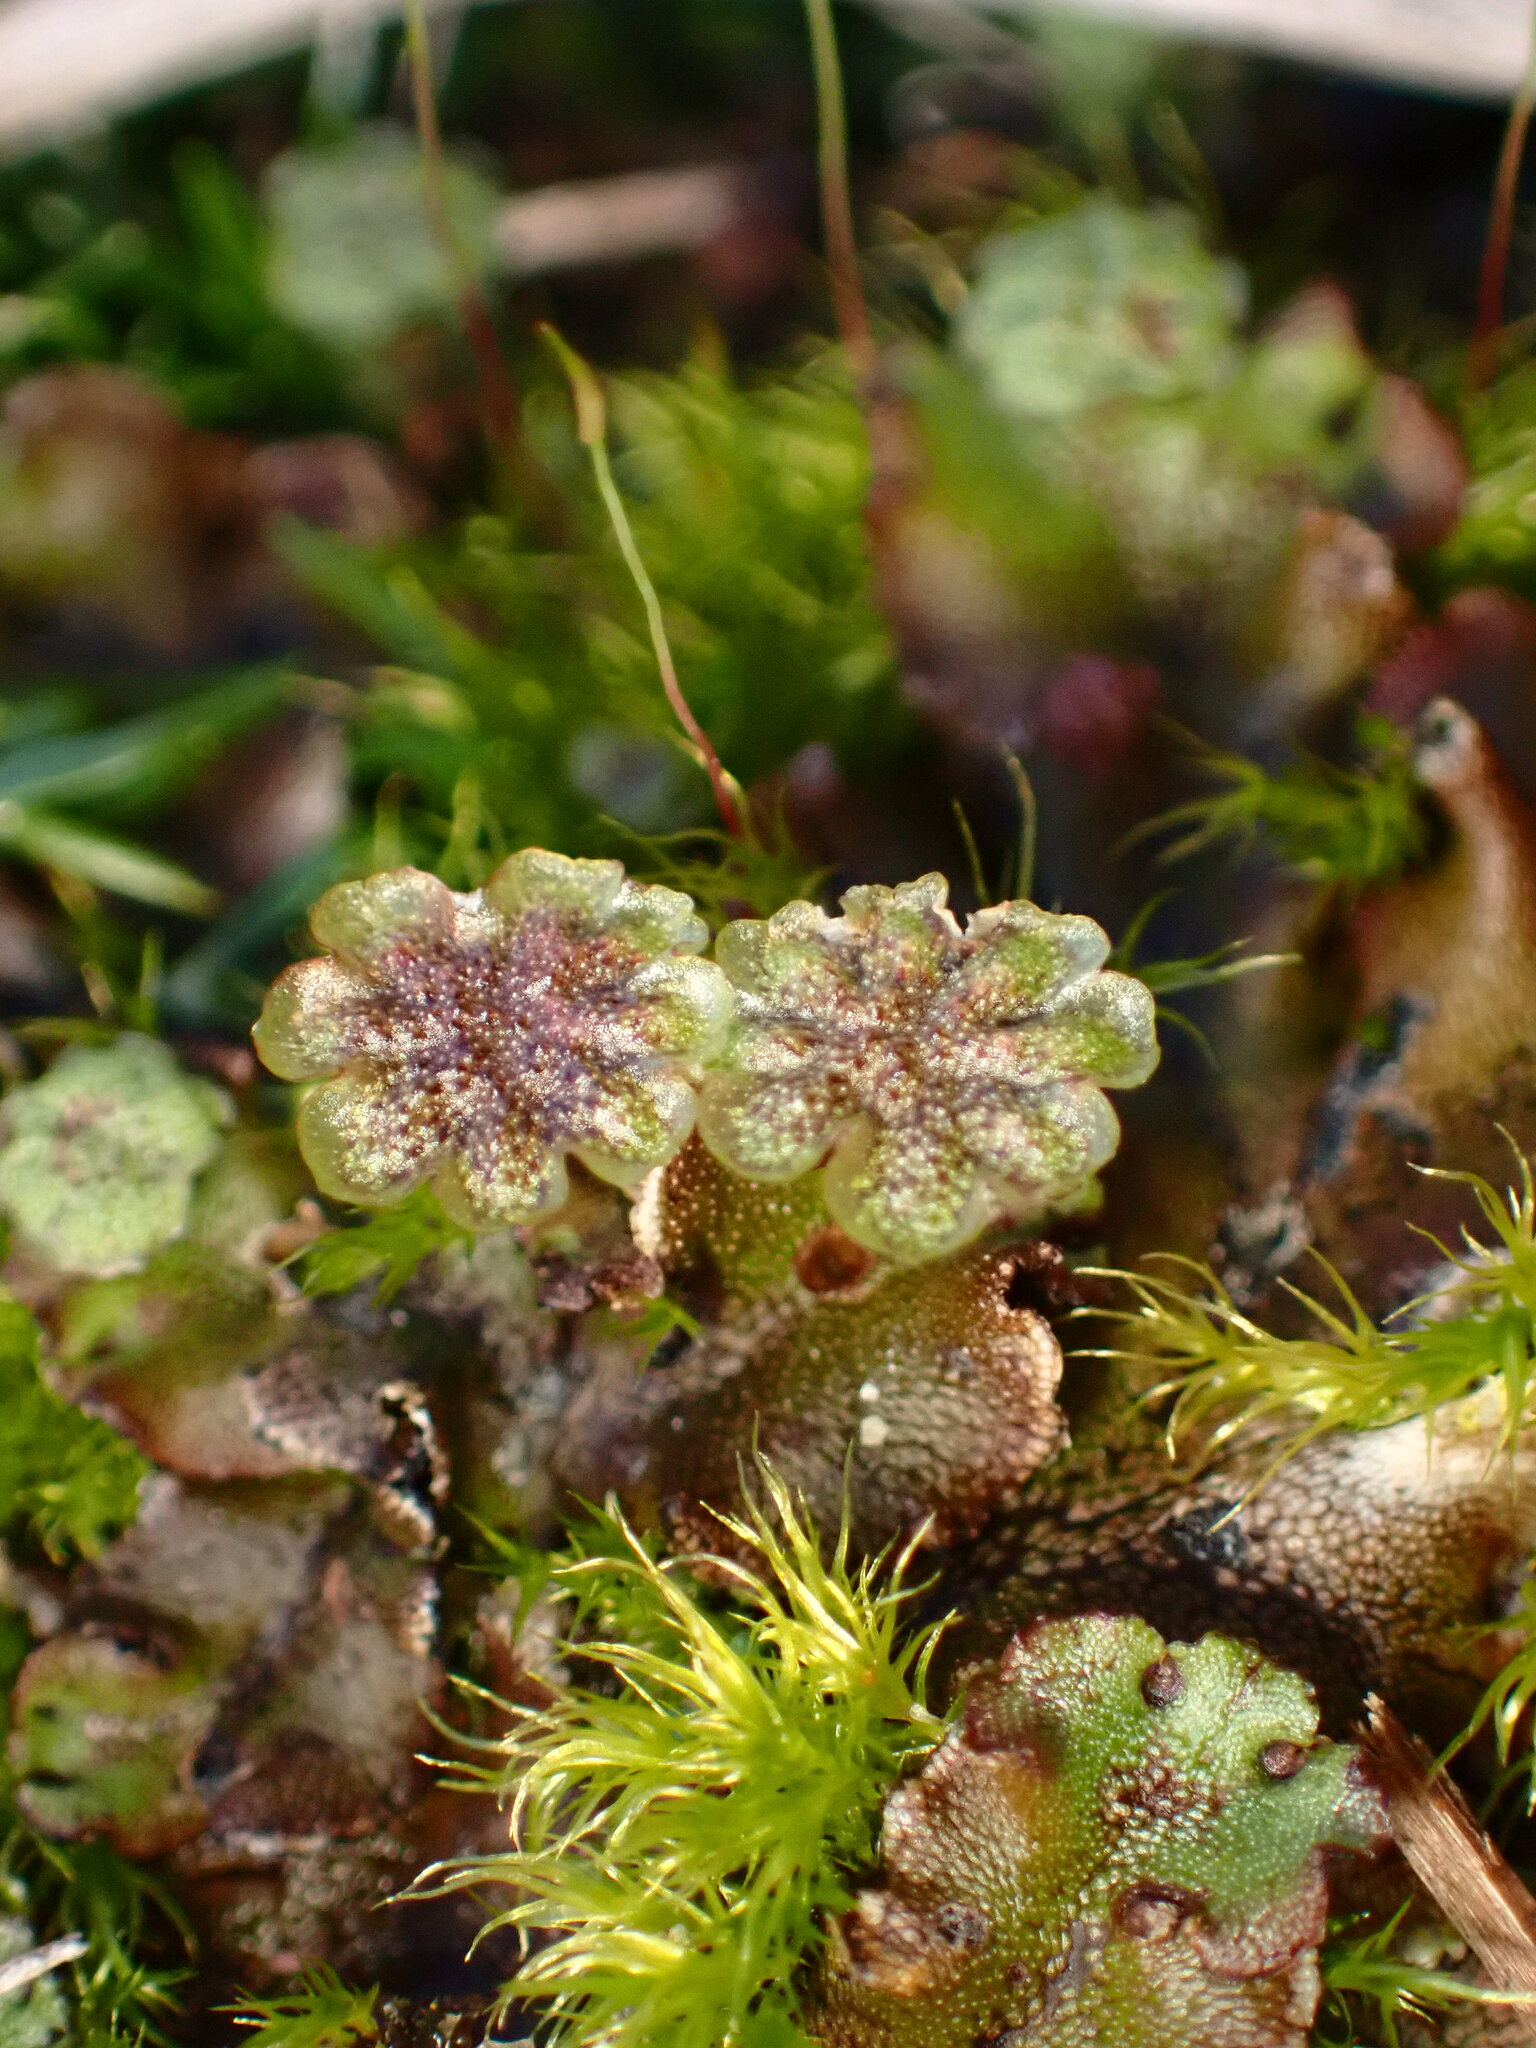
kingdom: Plantae
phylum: Marchantiophyta
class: Marchantiopsida
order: Marchantiales
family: Marchantiaceae
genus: Marchantia
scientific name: Marchantia polymorpha
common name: Common liverwort
